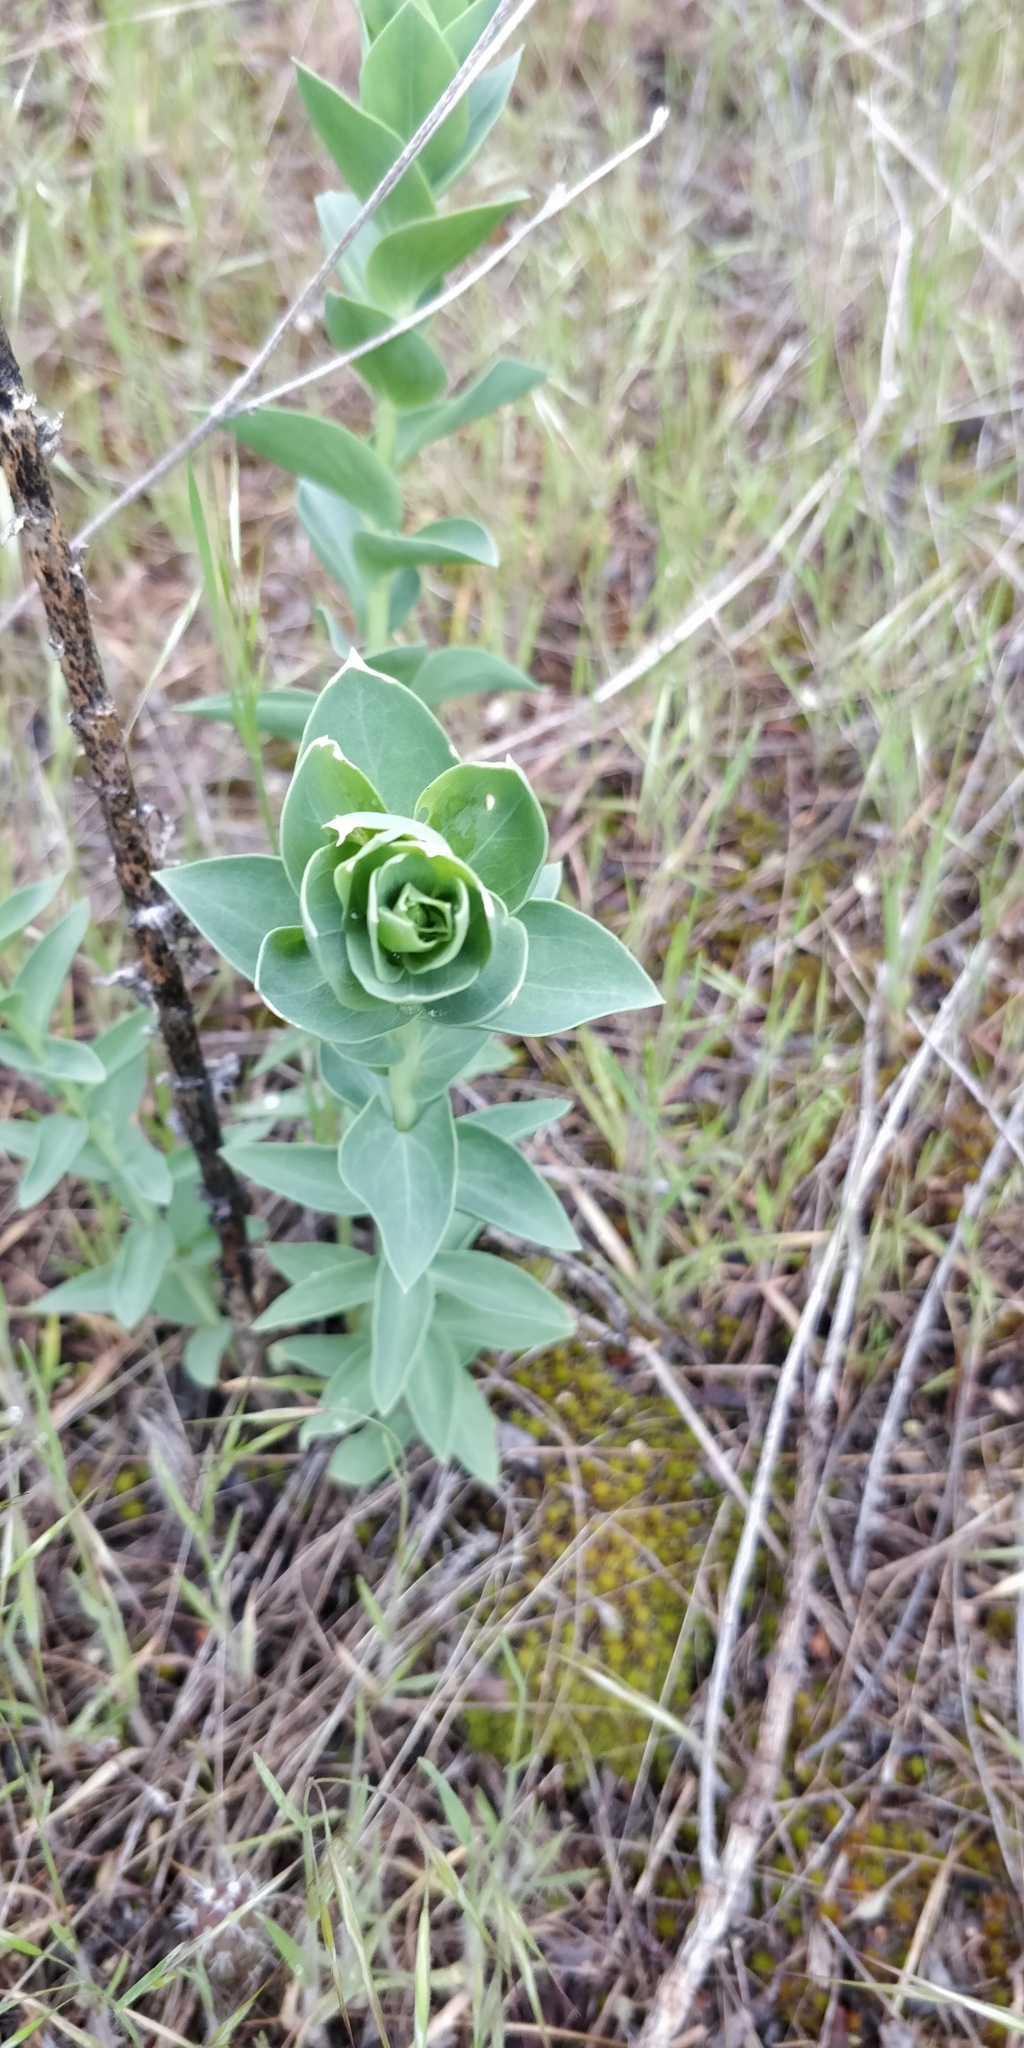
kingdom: Plantae
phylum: Tracheophyta
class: Magnoliopsida
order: Lamiales
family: Plantaginaceae
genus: Linaria
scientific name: Linaria dalmatica
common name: Dalmatian toadflax
